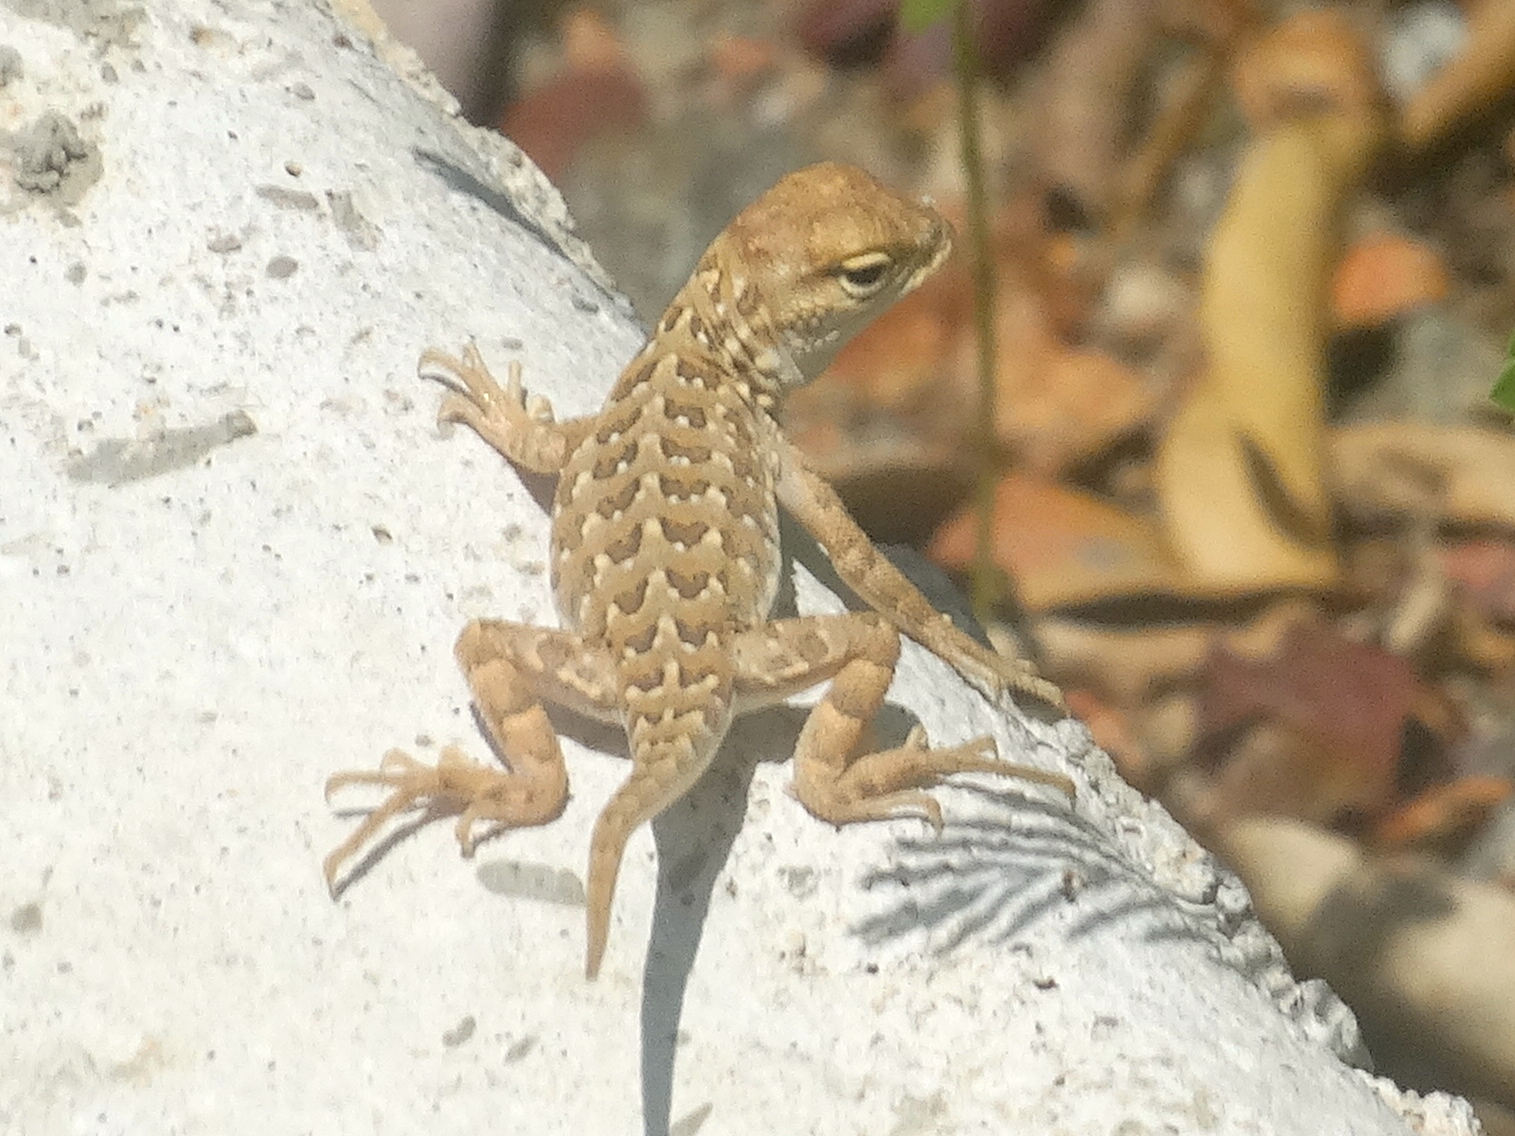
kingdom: Animalia
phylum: Chordata
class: Squamata
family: Phrynosomatidae
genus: Holbrookia
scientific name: Holbrookia elegans
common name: Elegant earless lizard
